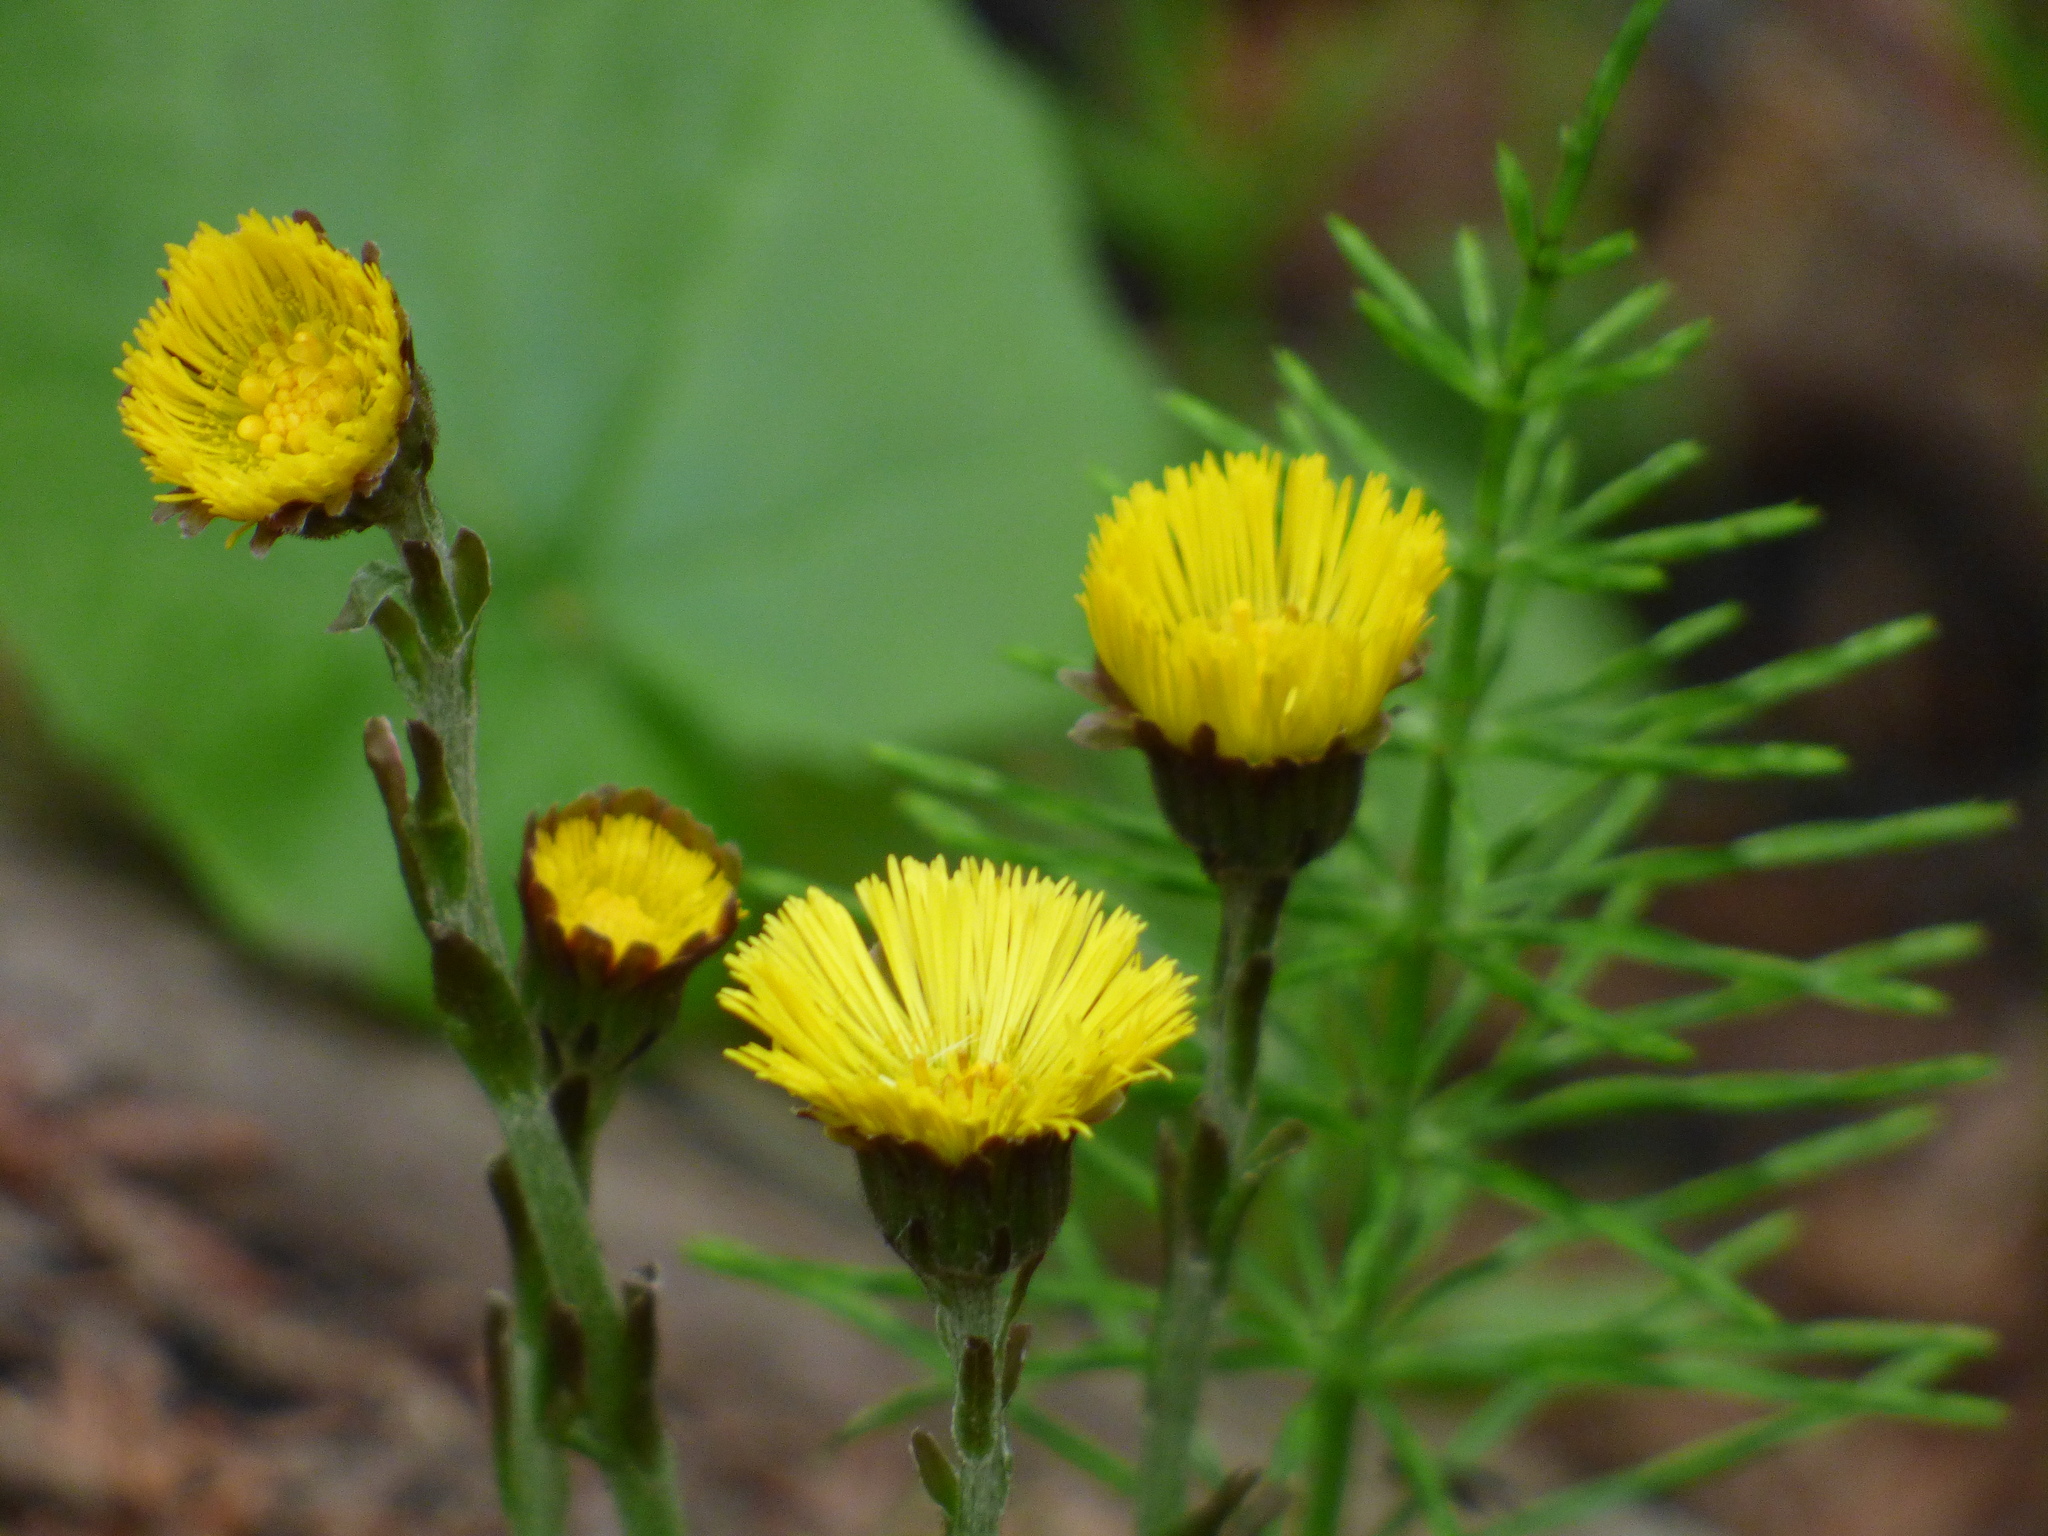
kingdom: Plantae
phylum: Tracheophyta
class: Magnoliopsida
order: Asterales
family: Asteraceae
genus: Tussilago
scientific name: Tussilago farfara
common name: Coltsfoot
